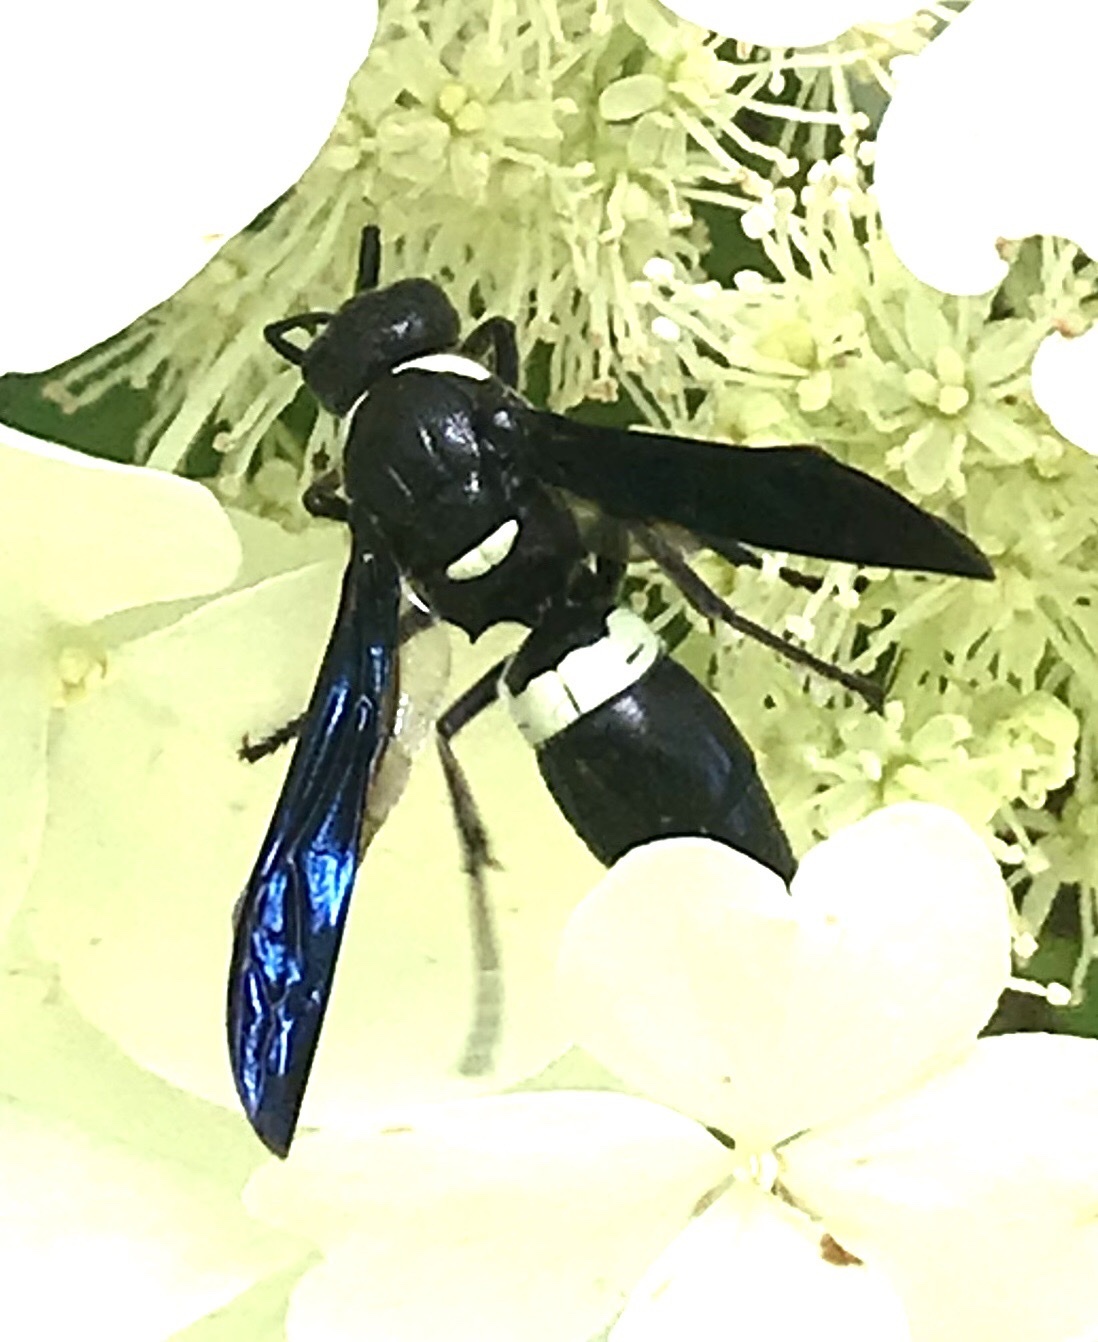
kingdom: Animalia
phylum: Arthropoda
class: Insecta
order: Hymenoptera
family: Eumenidae
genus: Monobia
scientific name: Monobia quadridens
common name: Four-toothed mason wasp
